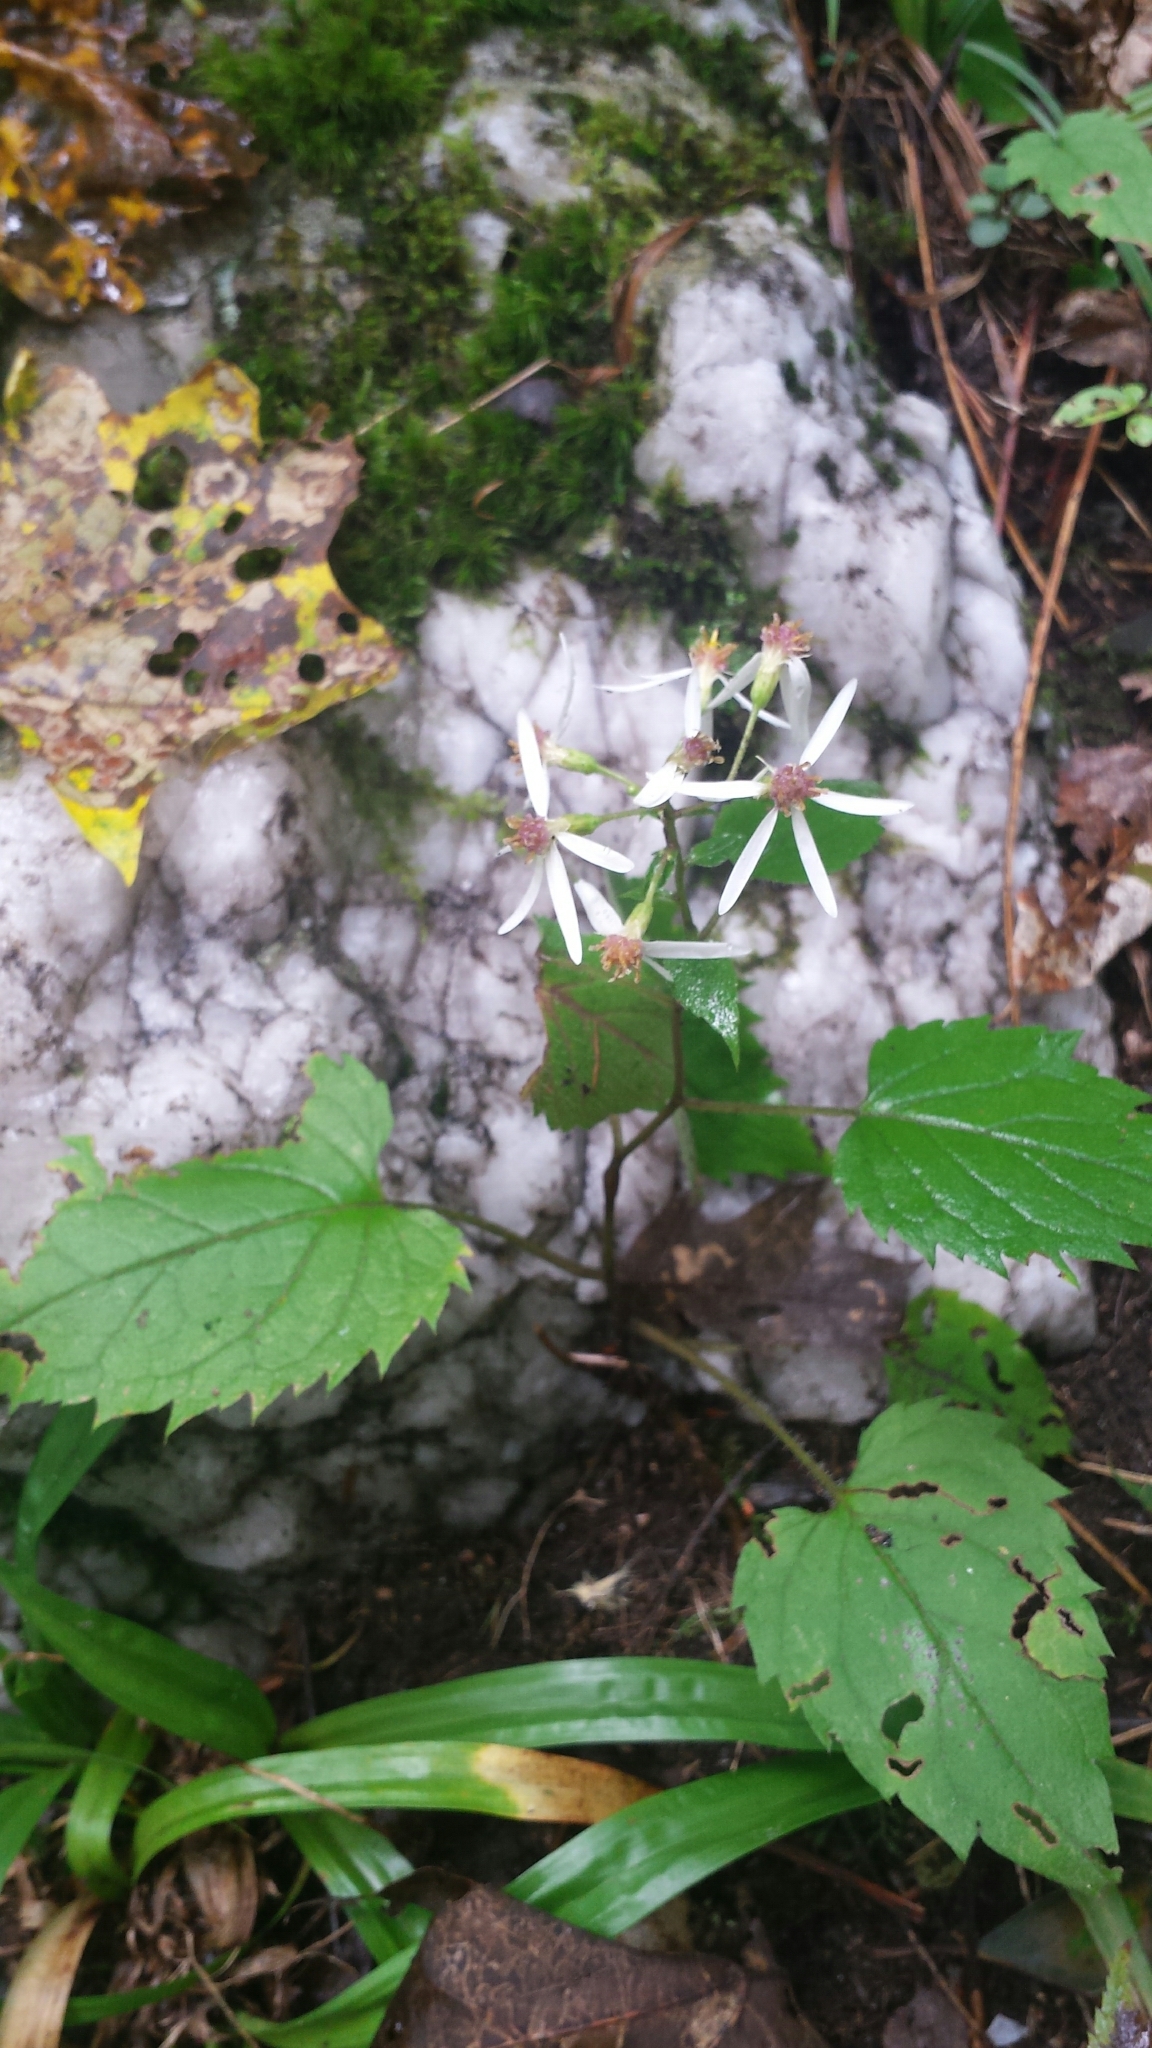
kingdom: Plantae
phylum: Tracheophyta
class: Magnoliopsida
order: Asterales
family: Asteraceae
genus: Eurybia
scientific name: Eurybia divaricata
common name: White wood aster
